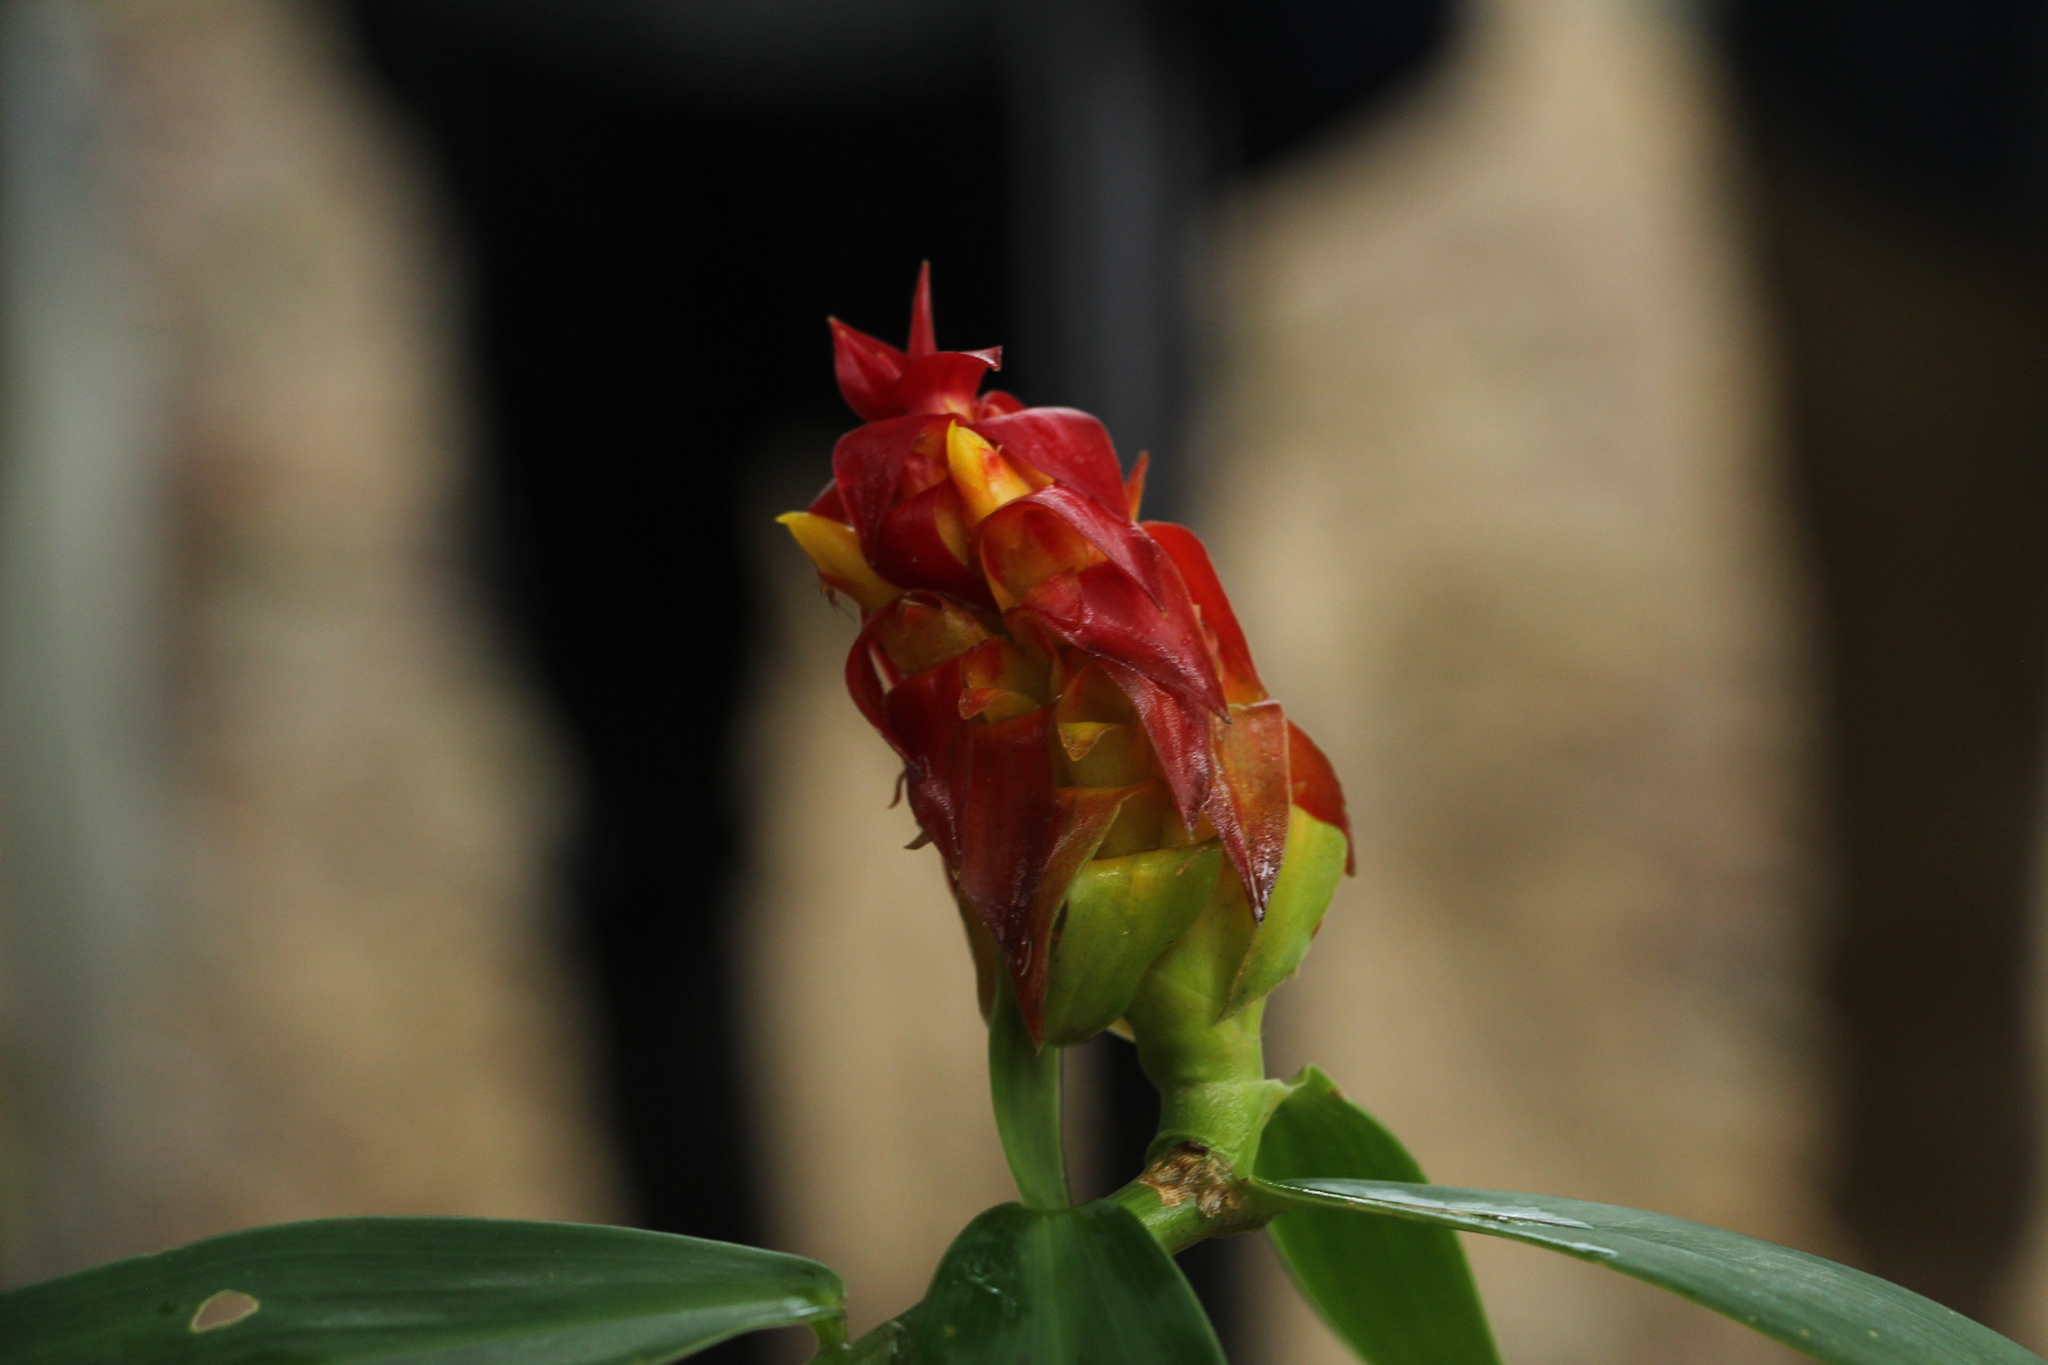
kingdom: Plantae
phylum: Tracheophyta
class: Liliopsida
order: Zingiberales
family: Costaceae
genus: Costus
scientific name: Costus comosus
